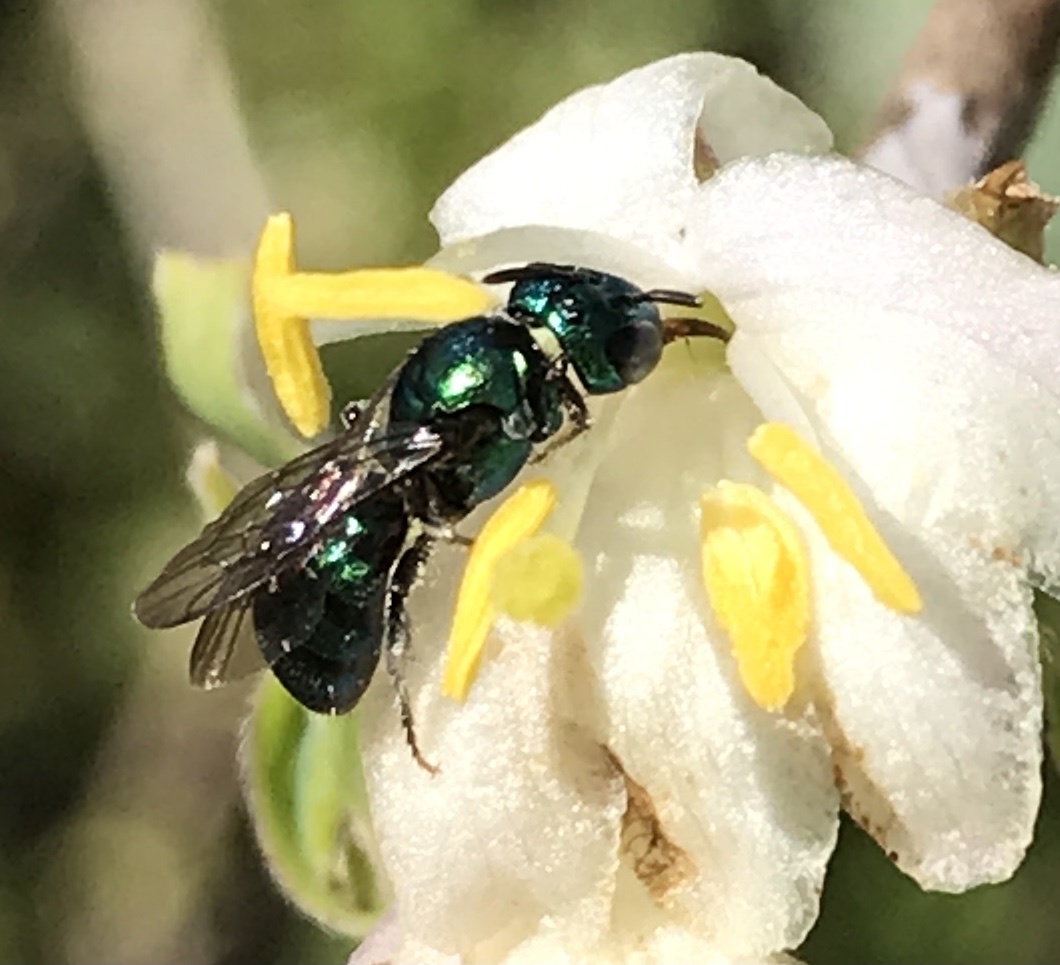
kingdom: Animalia
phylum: Arthropoda
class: Insecta
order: Hymenoptera
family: Apidae
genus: Ceratina
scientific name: Ceratina cobaltina
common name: Small carpenter bee
